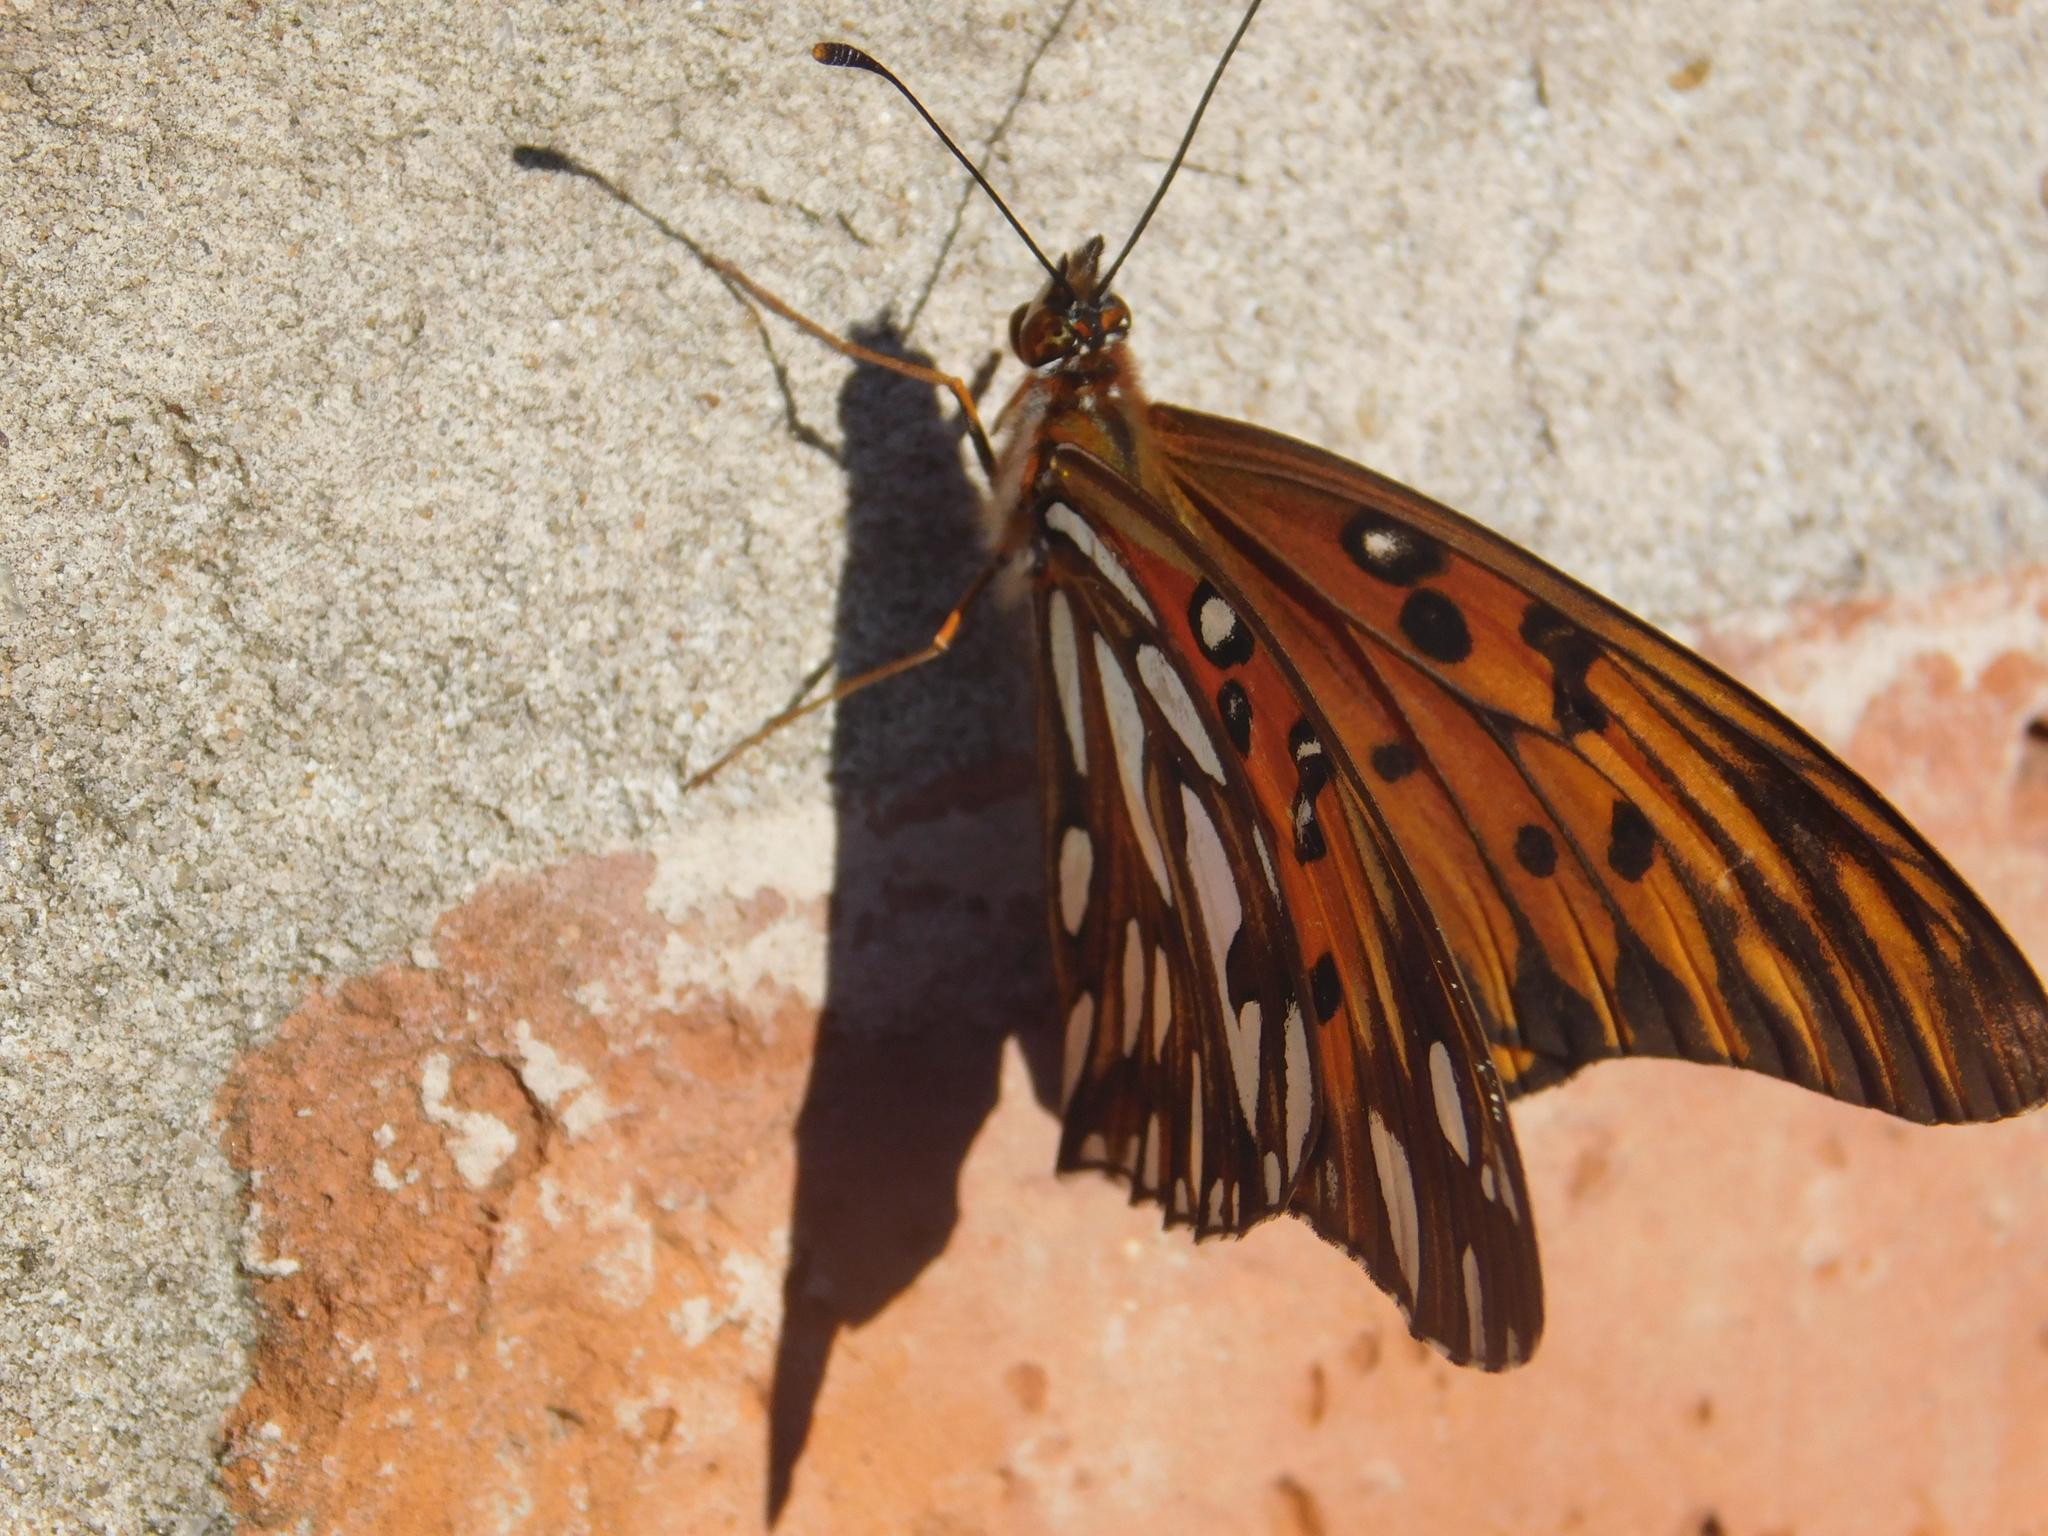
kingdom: Animalia
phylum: Arthropoda
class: Insecta
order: Lepidoptera
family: Nymphalidae
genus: Dione
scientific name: Dione vanillae
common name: Gulf fritillary
